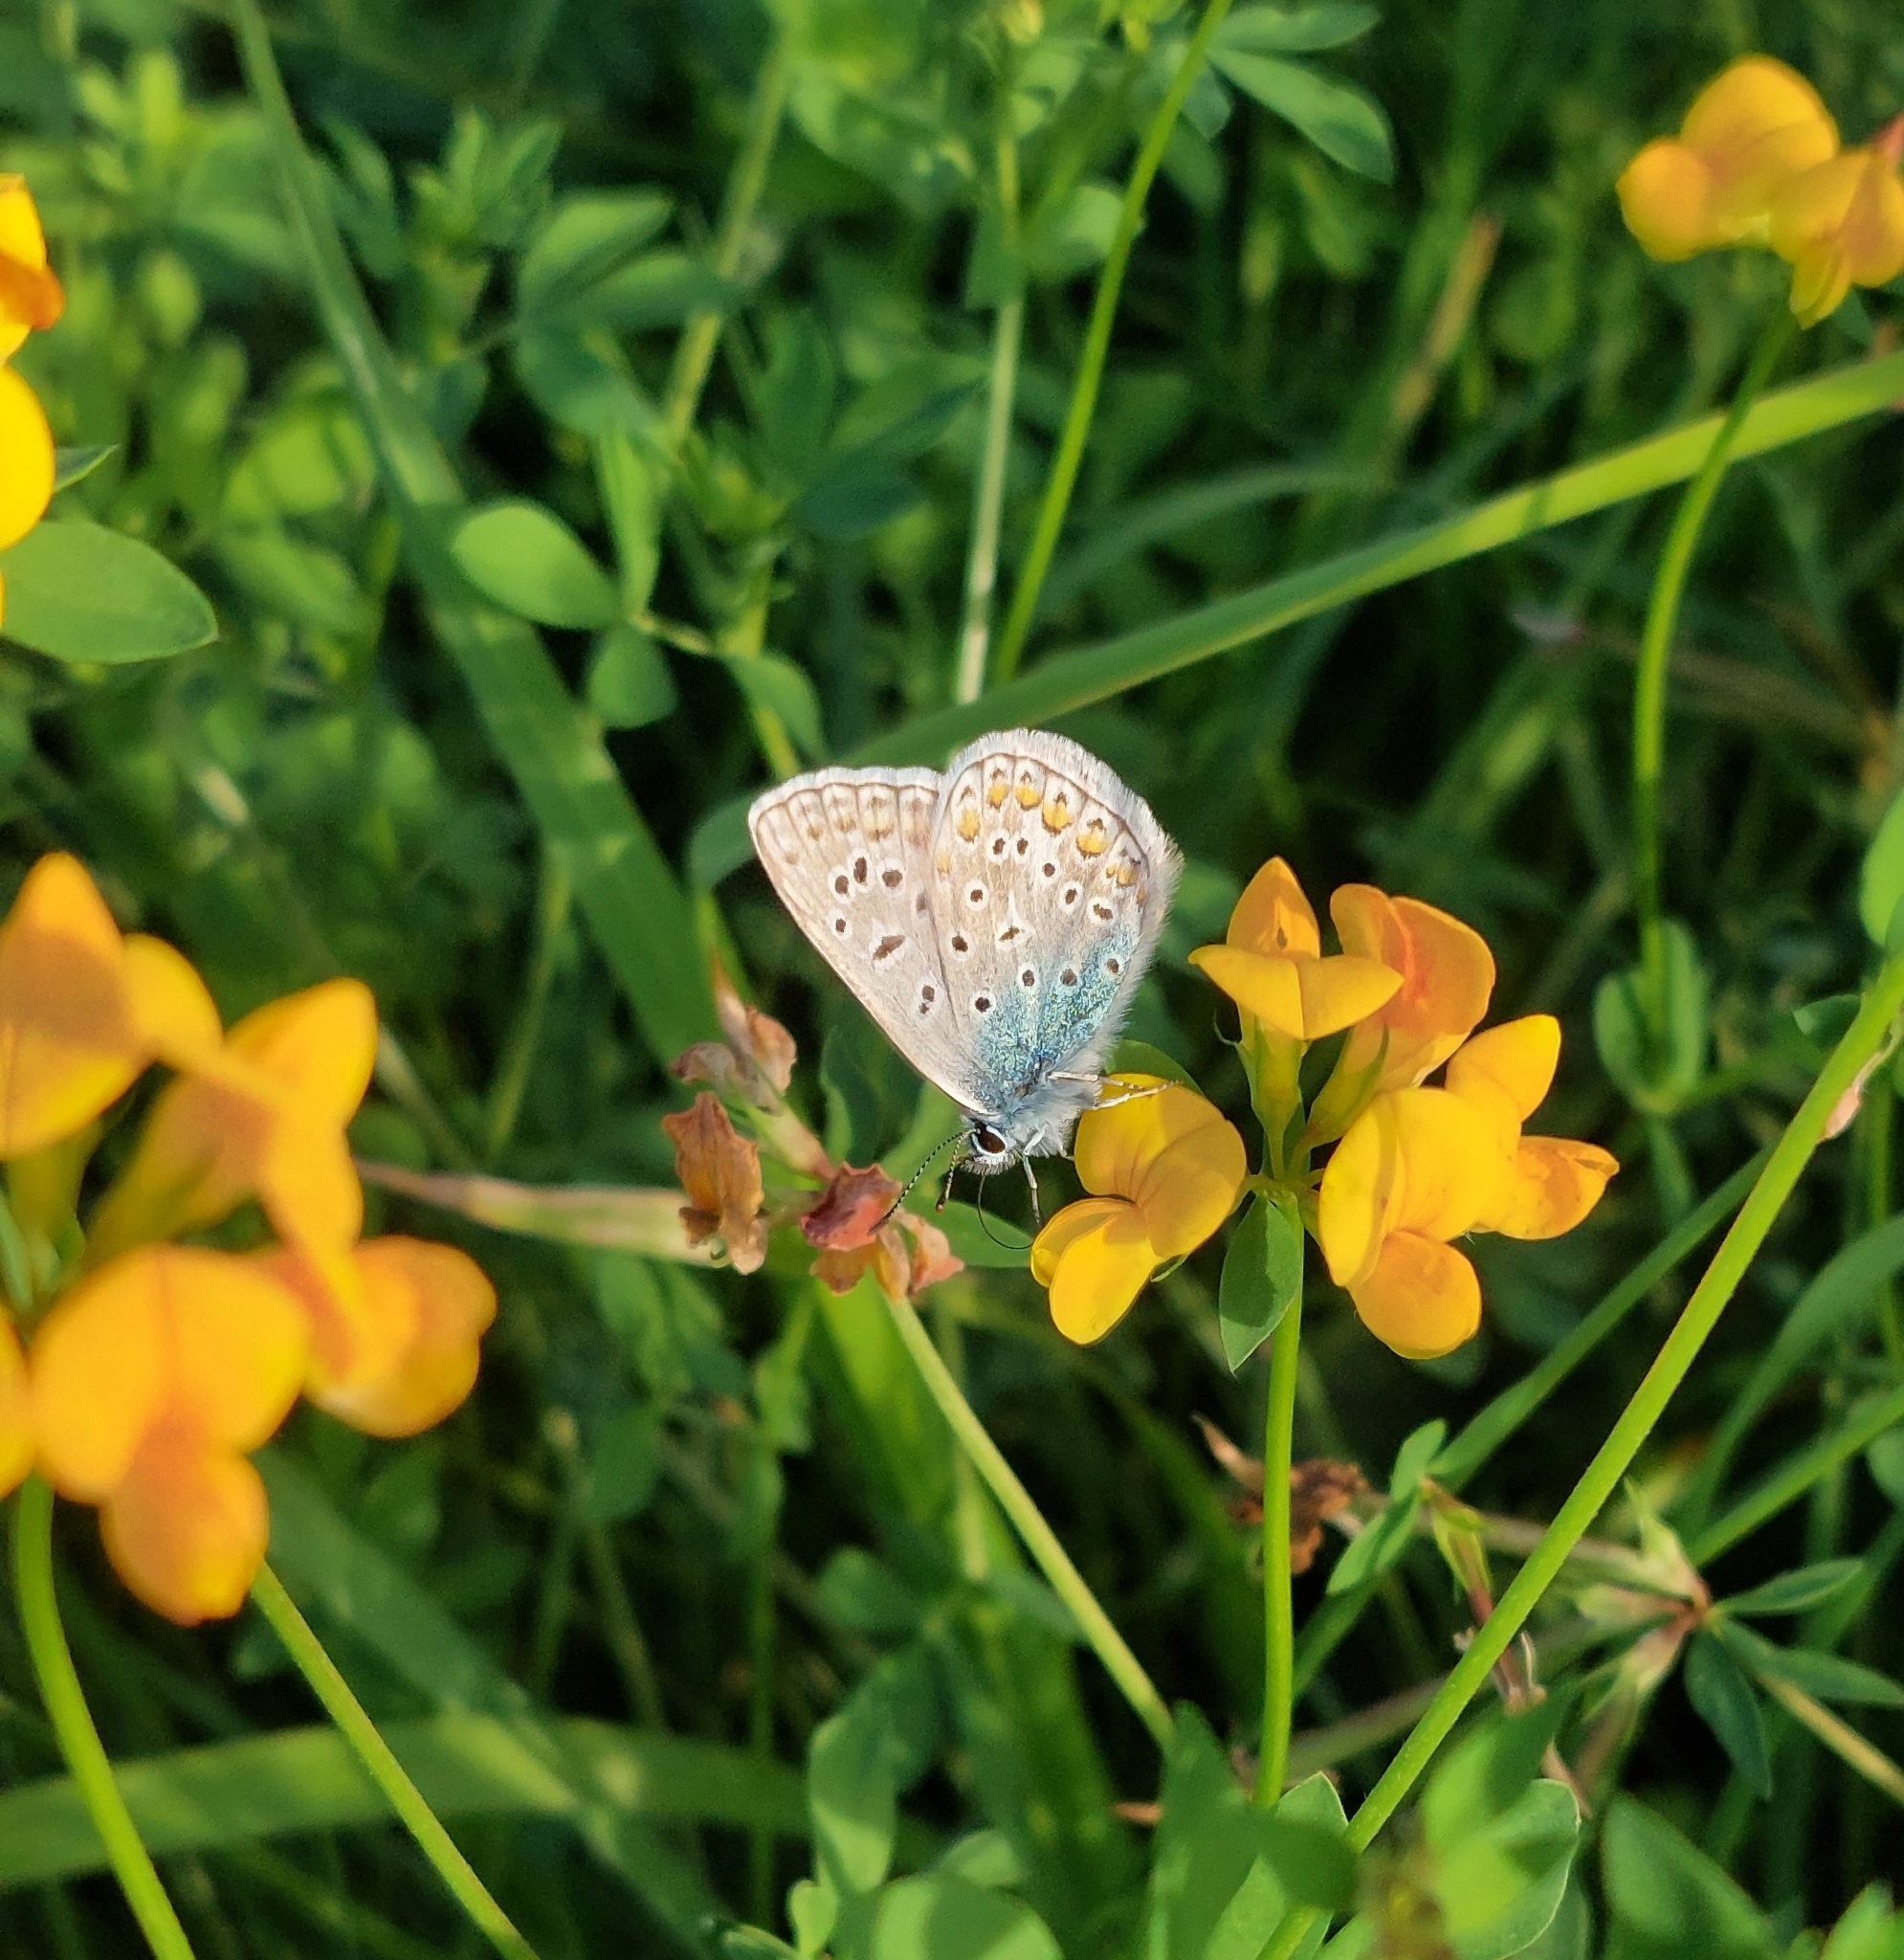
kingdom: Animalia
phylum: Arthropoda
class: Insecta
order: Lepidoptera
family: Lycaenidae
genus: Polyommatus
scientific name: Polyommatus icarus
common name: Common blue
